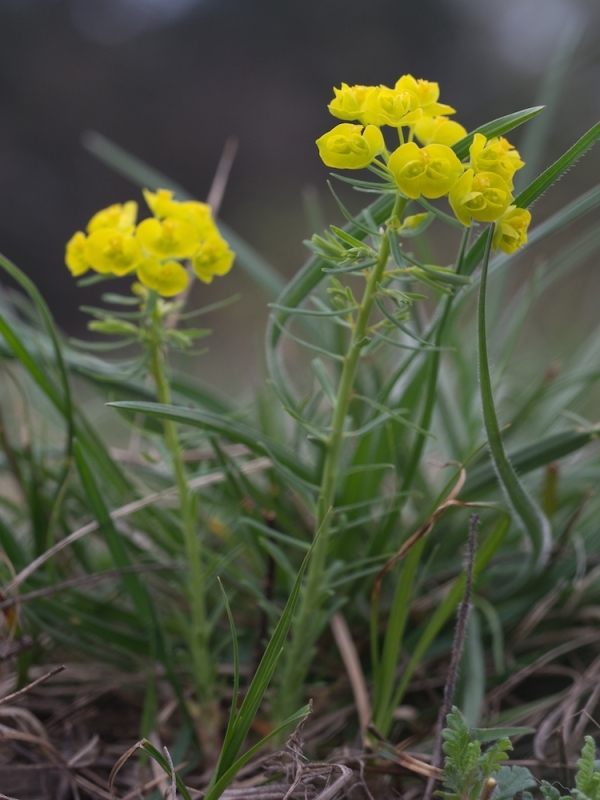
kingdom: Plantae
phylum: Tracheophyta
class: Magnoliopsida
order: Malpighiales
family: Euphorbiaceae
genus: Euphorbia
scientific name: Euphorbia cyparissias
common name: Cypress spurge
